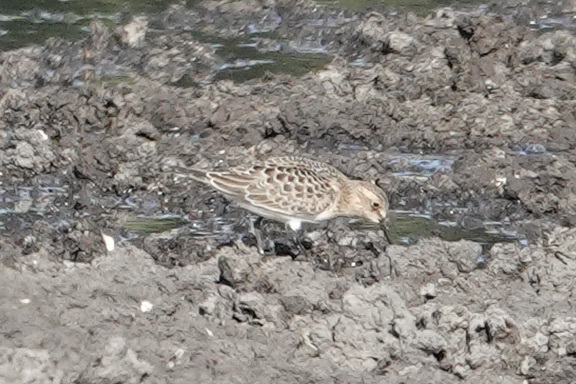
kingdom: Animalia
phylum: Chordata
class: Aves
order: Charadriiformes
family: Scolopacidae
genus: Calidris
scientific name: Calidris bairdii
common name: Baird's sandpiper
